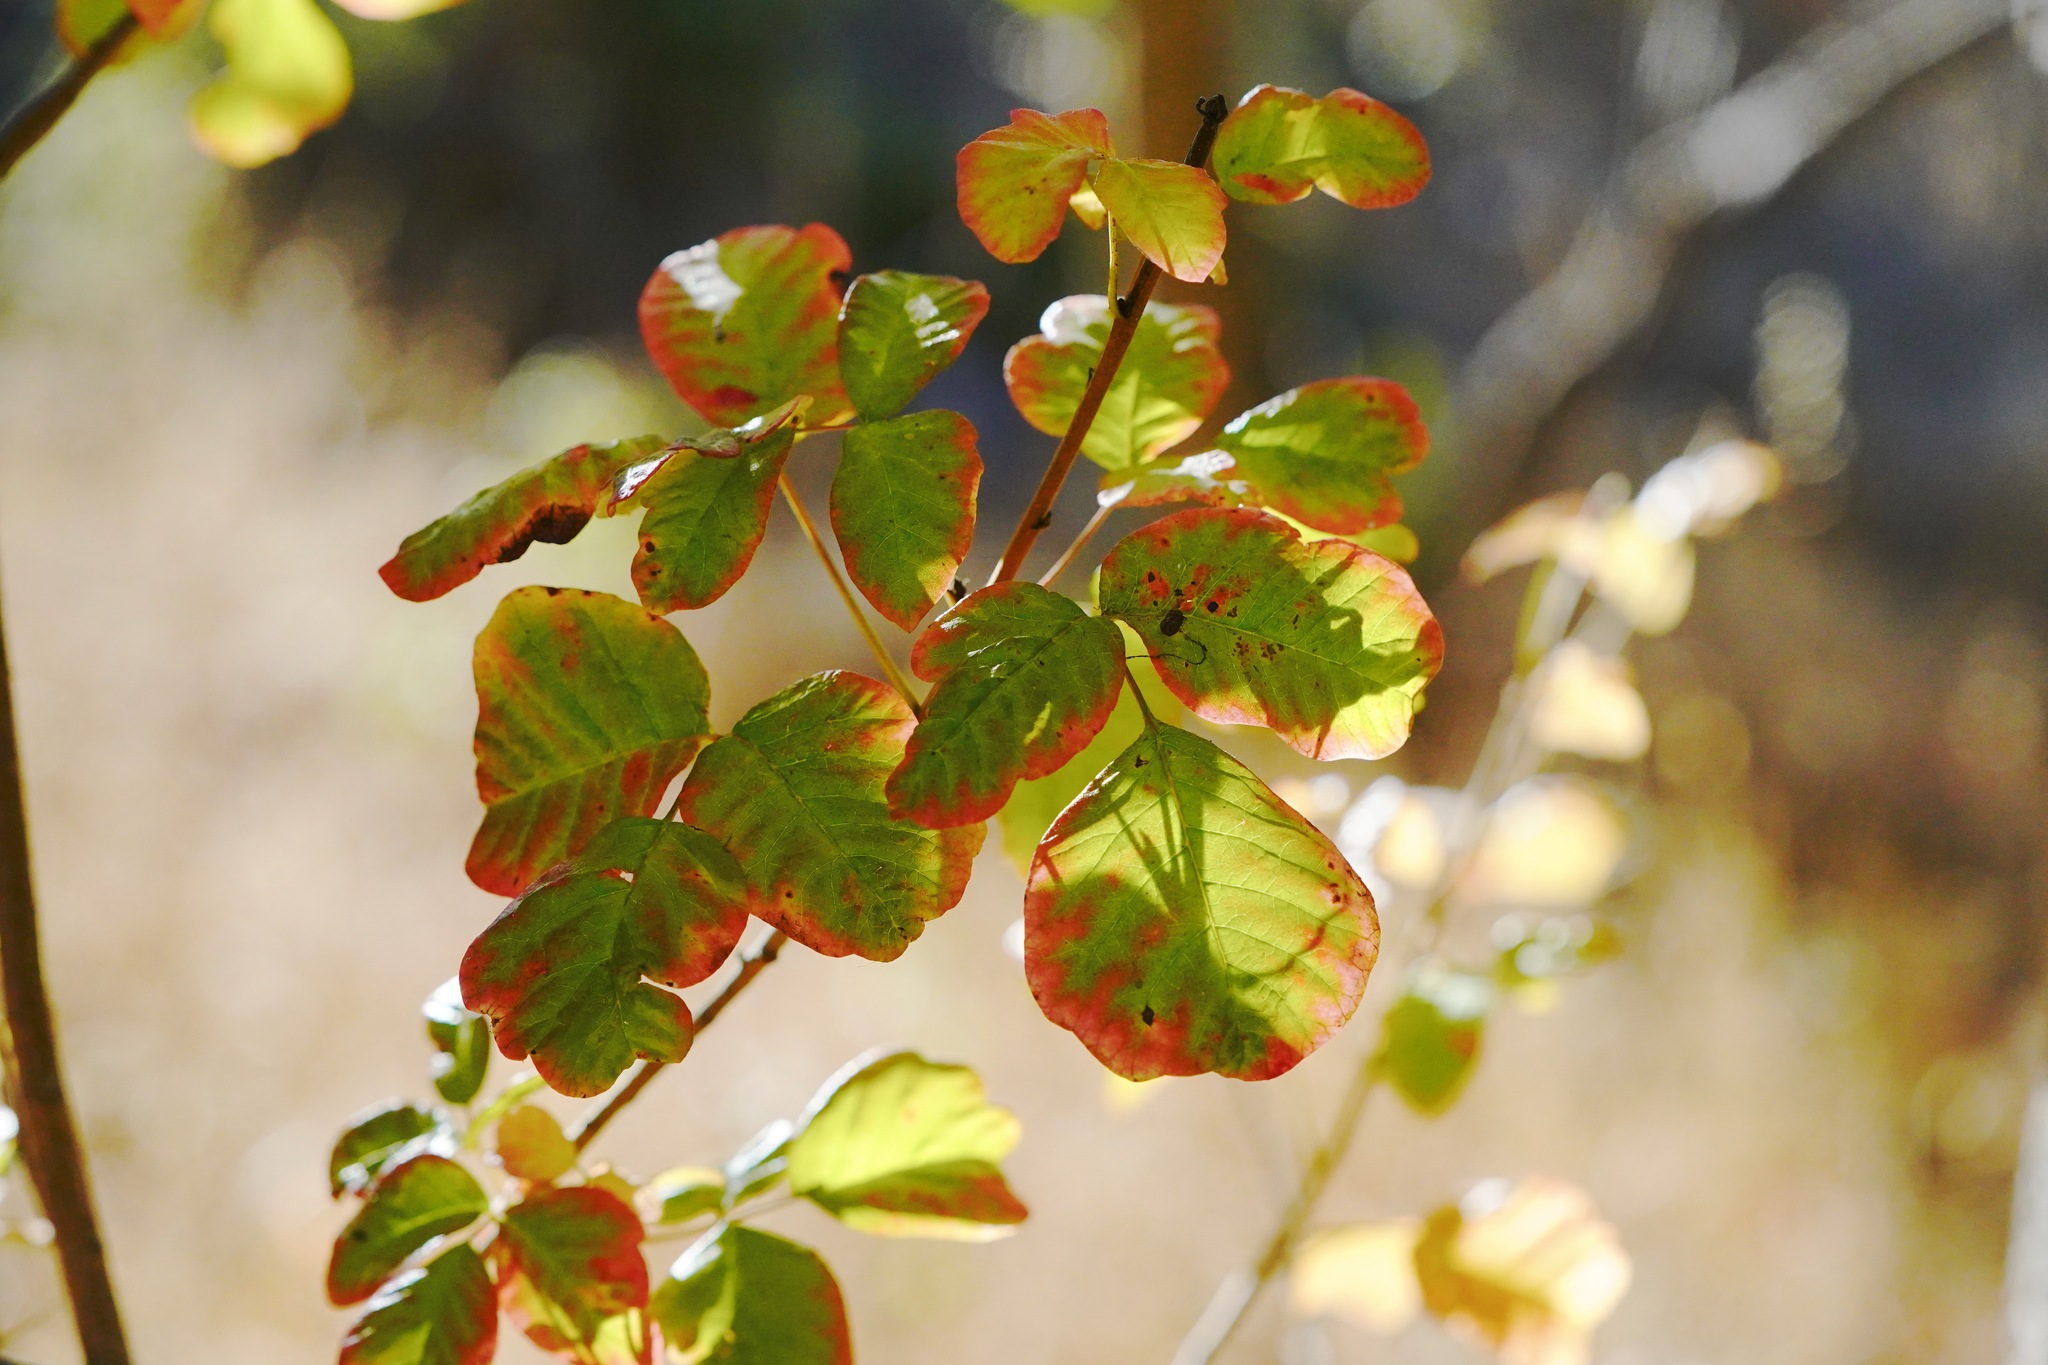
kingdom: Plantae
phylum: Tracheophyta
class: Magnoliopsida
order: Sapindales
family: Anacardiaceae
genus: Toxicodendron
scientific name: Toxicodendron diversilobum
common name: Pacific poison-oak
